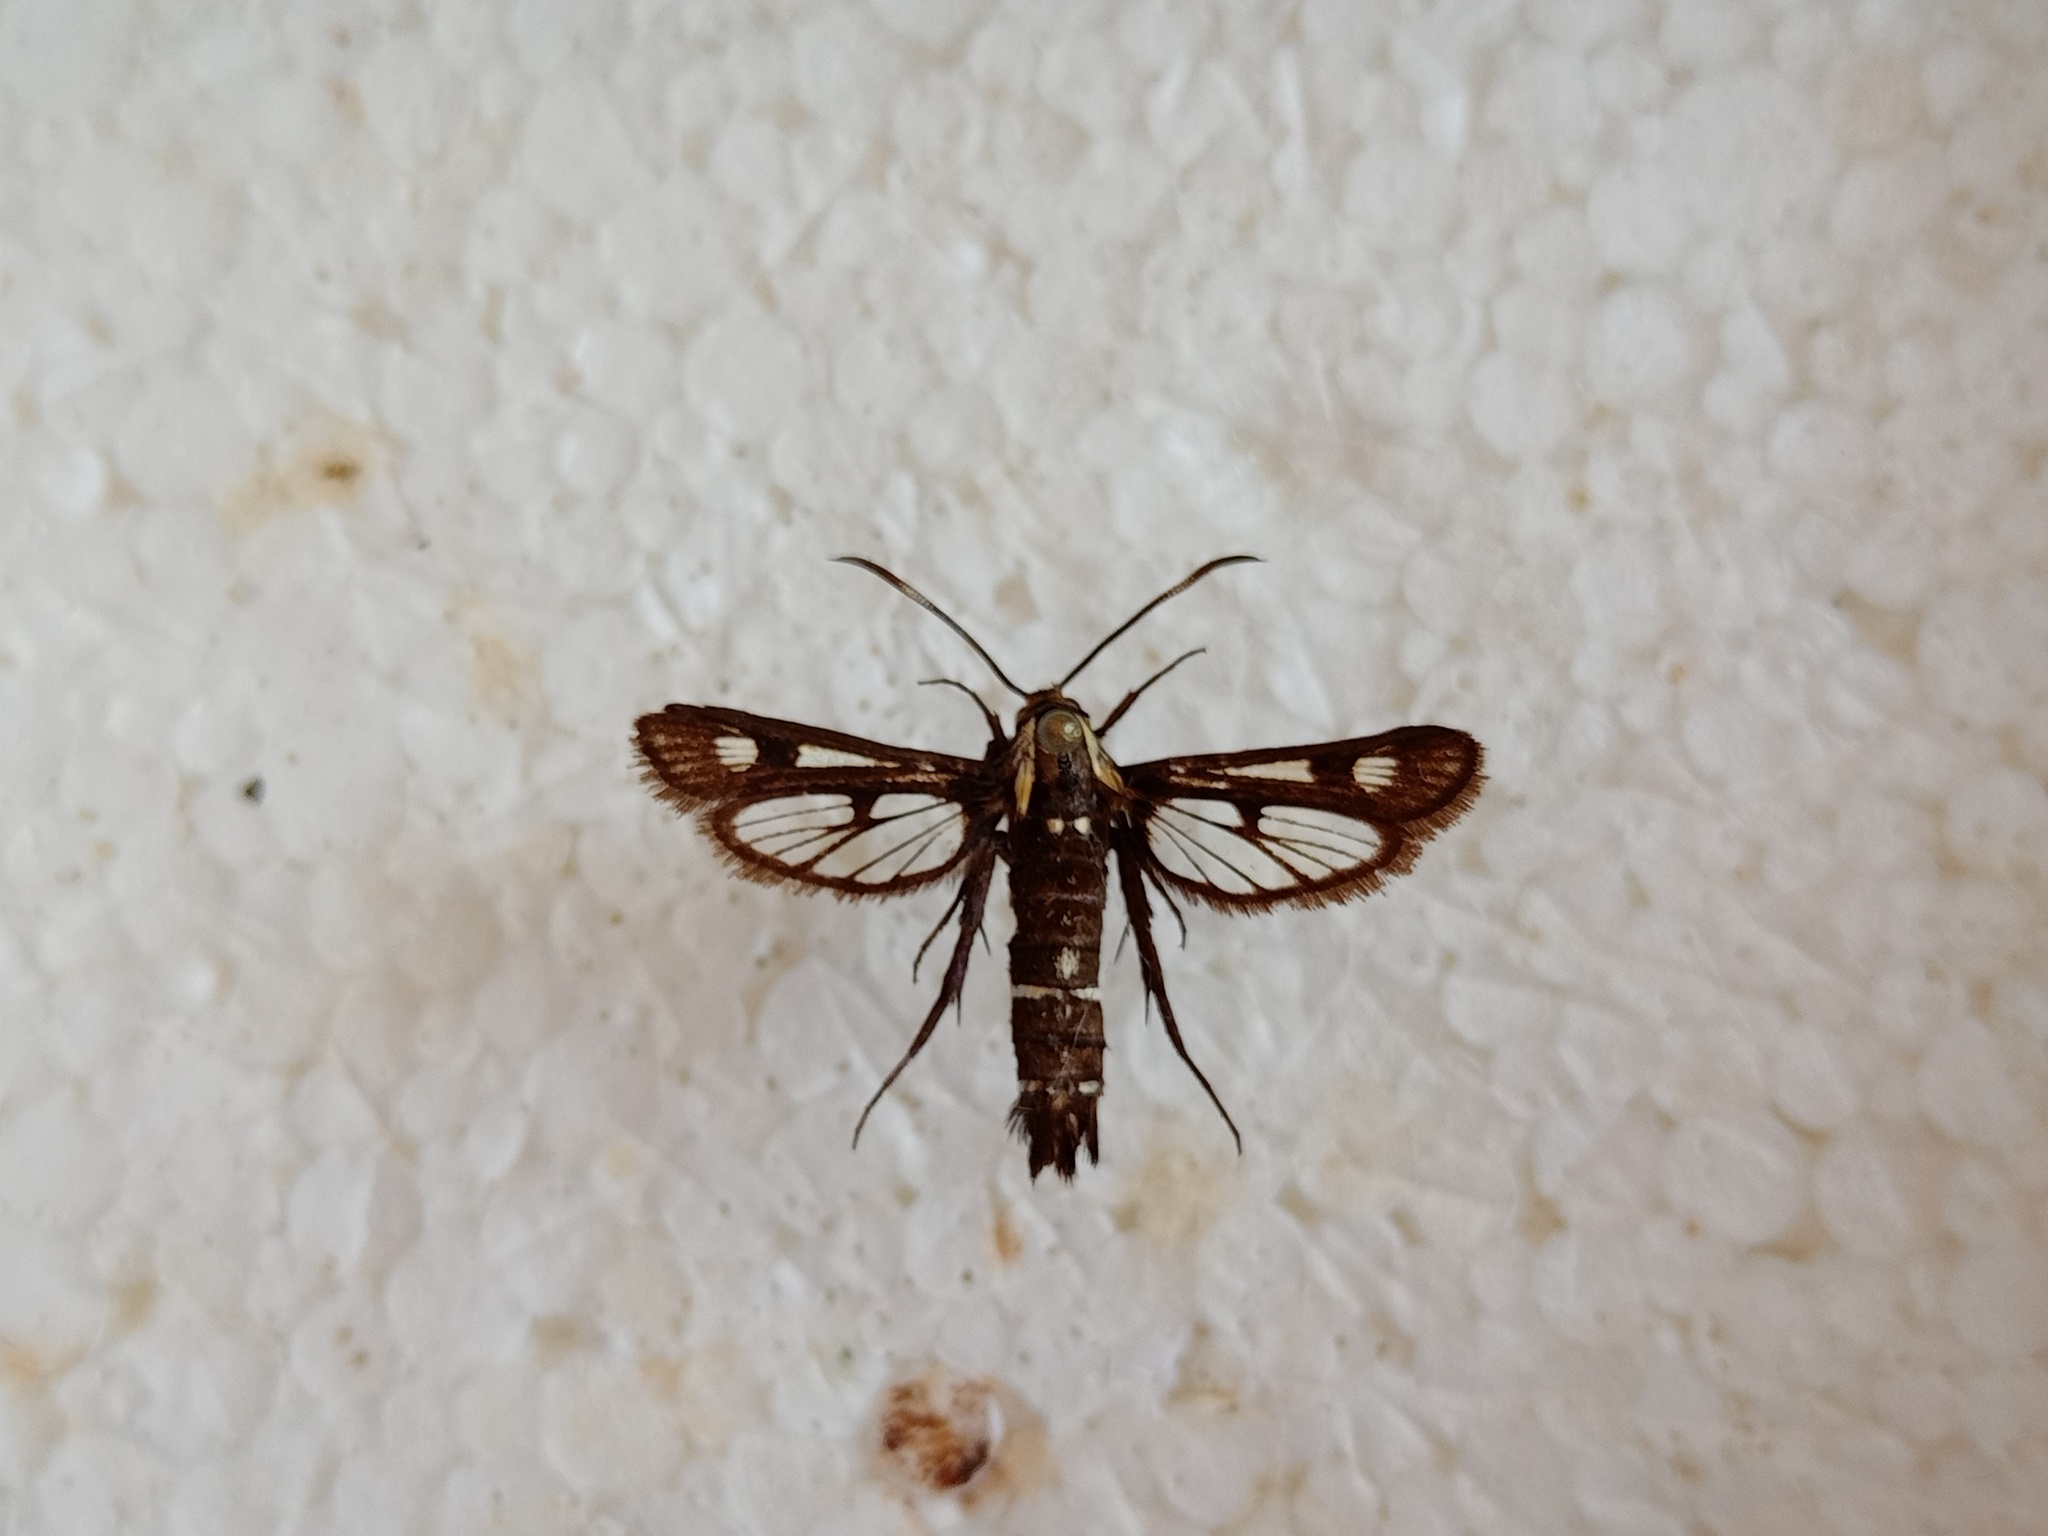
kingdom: Animalia
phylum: Arthropoda
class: Insecta
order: Lepidoptera
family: Sesiidae
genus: Pyropteron
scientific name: Pyropteron koshantschikovi
